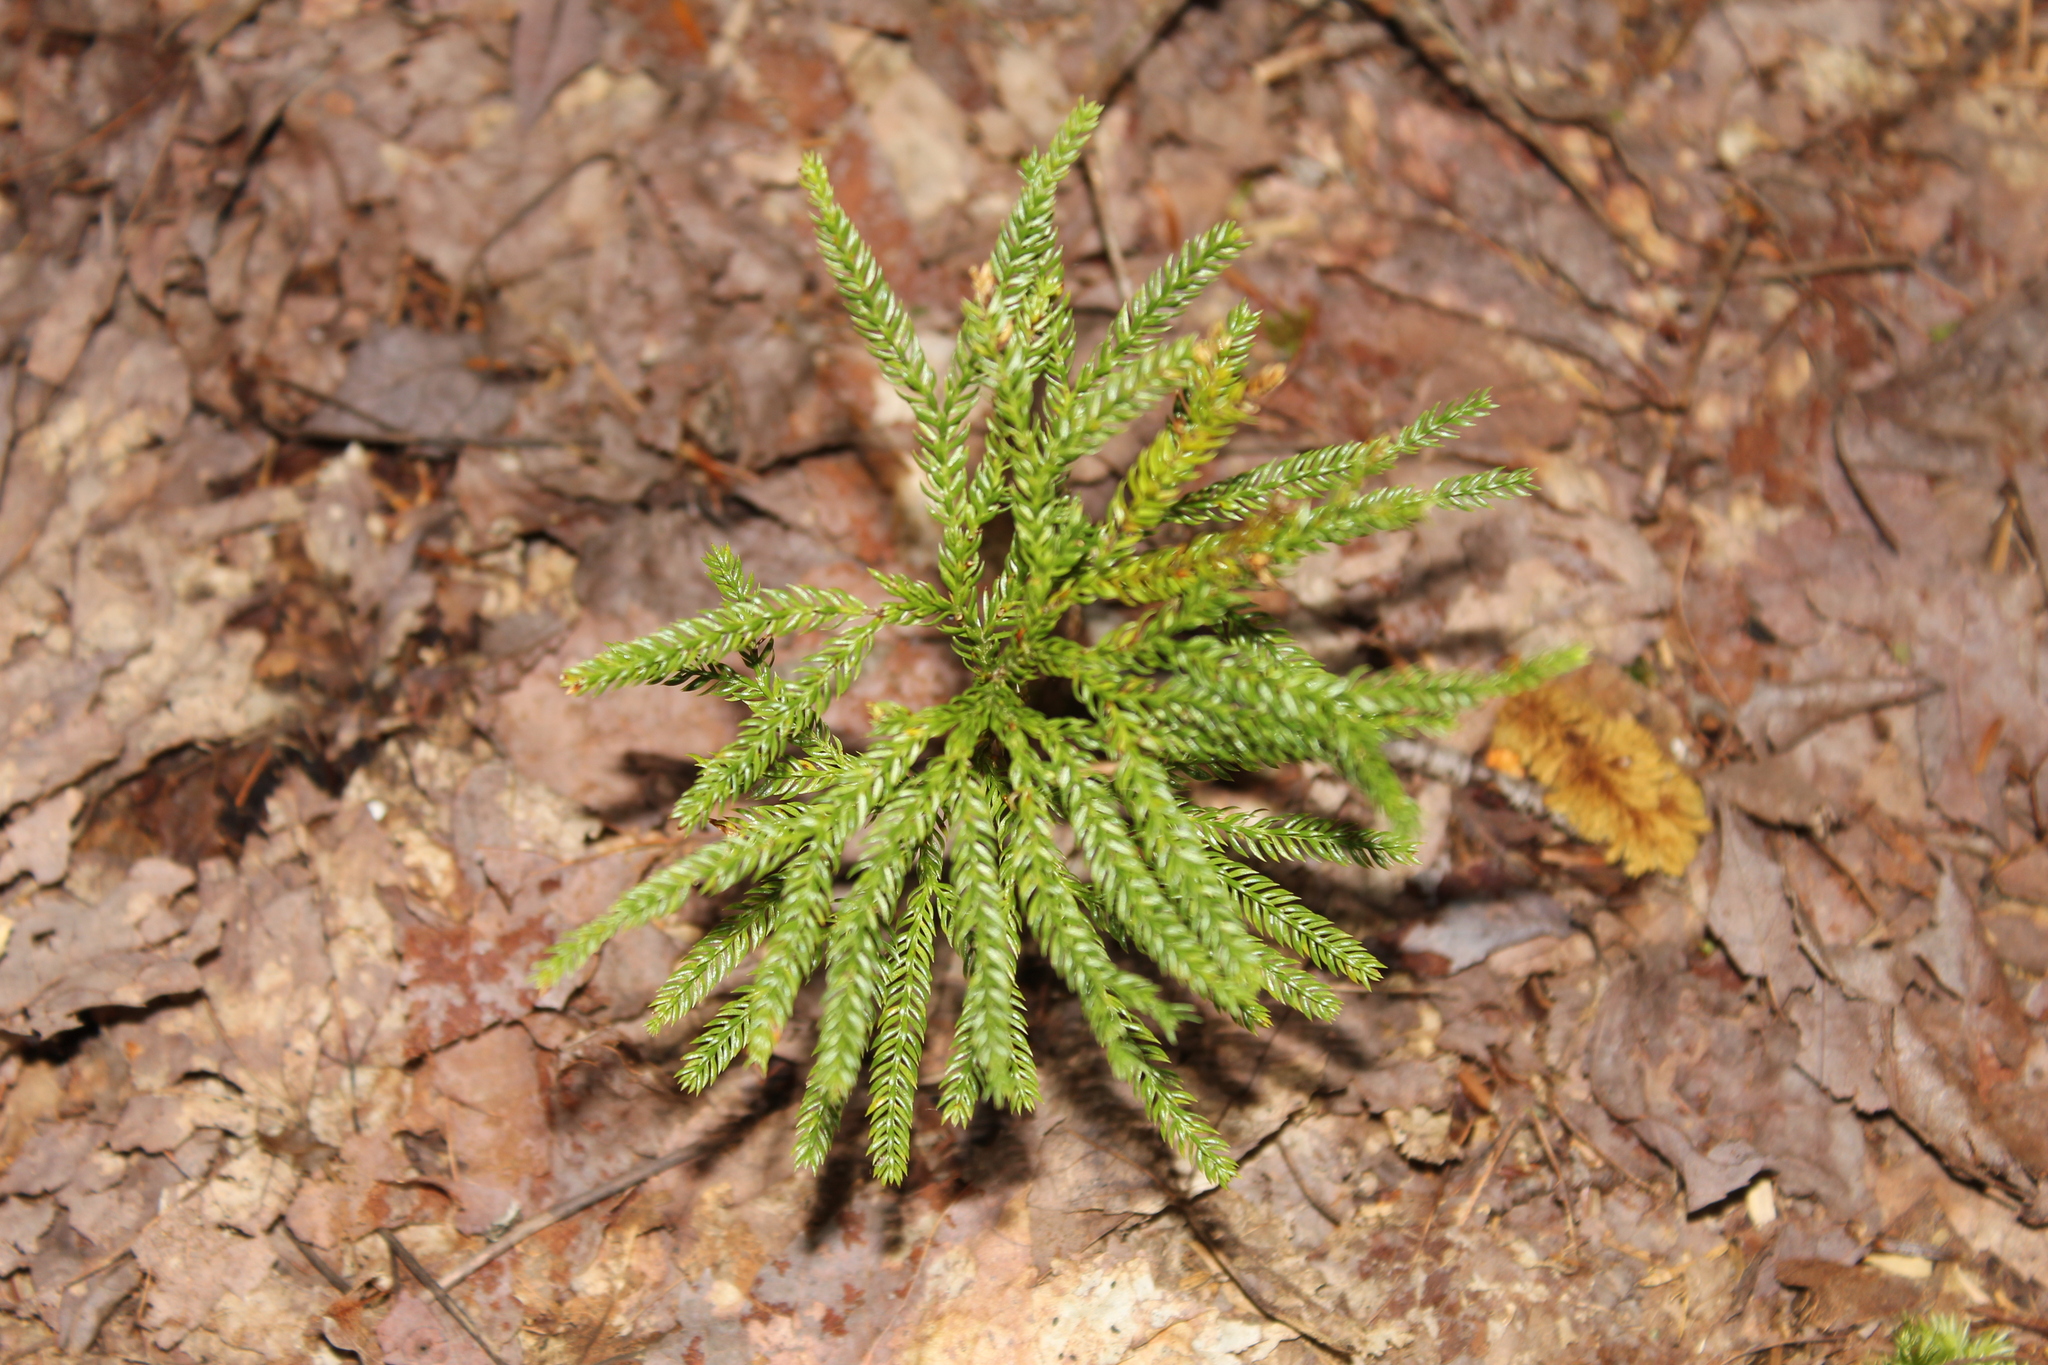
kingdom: Plantae
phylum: Tracheophyta
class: Lycopodiopsida
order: Lycopodiales
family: Lycopodiaceae
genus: Dendrolycopodium
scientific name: Dendrolycopodium obscurum
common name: Common ground-pine
